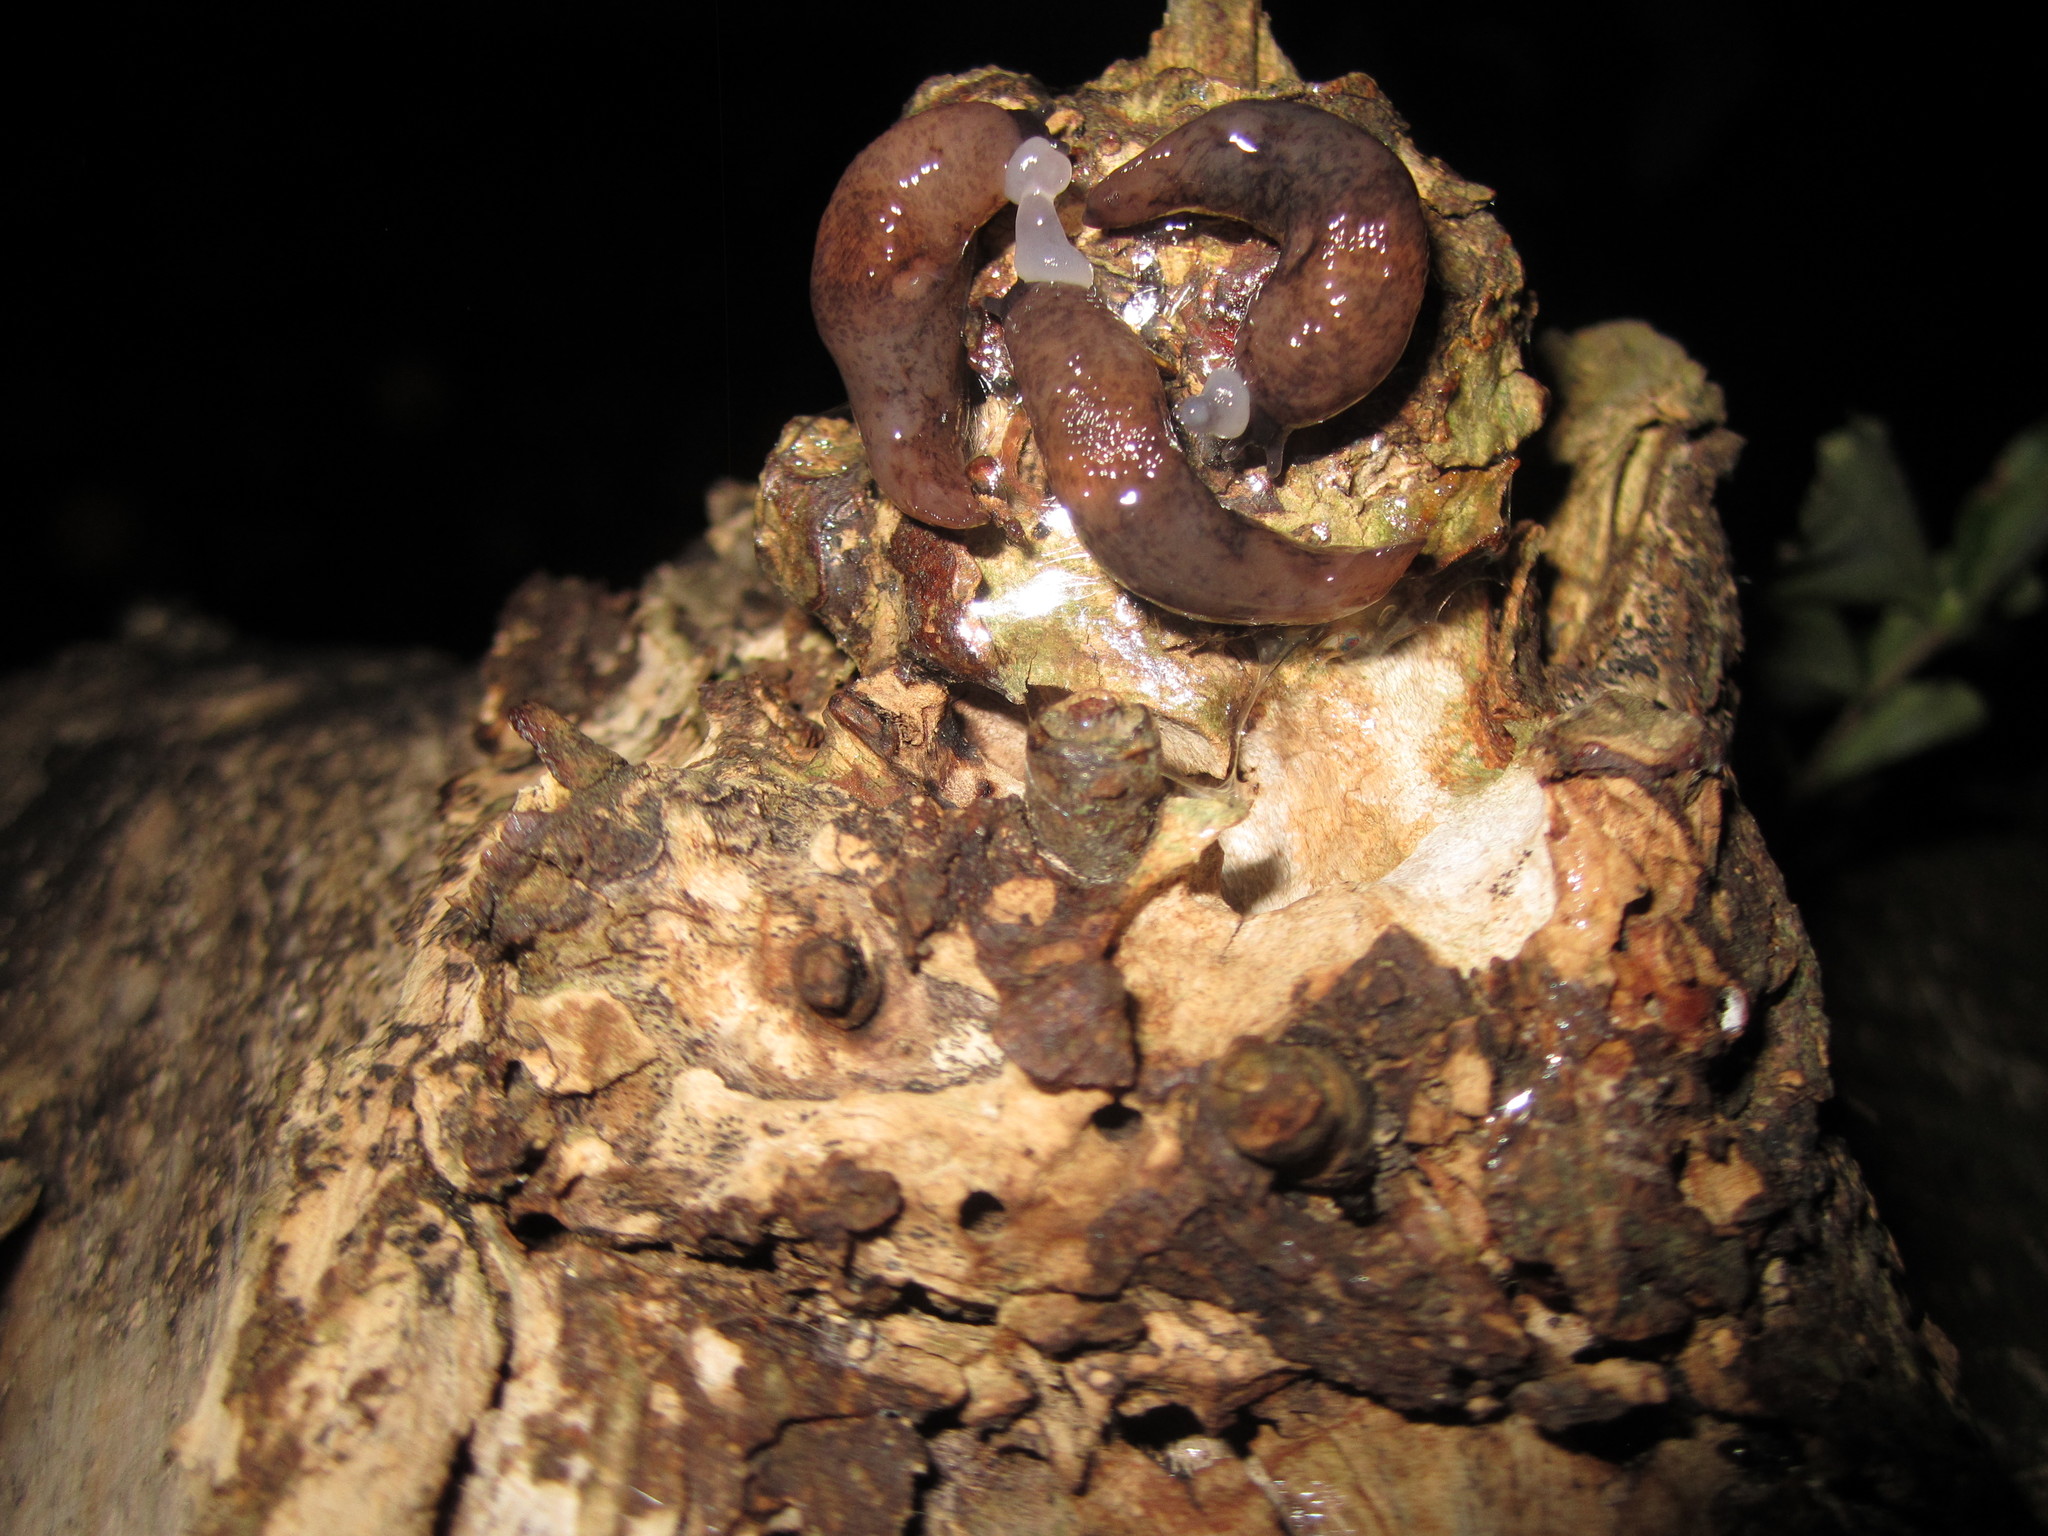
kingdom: Animalia
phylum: Mollusca
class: Gastropoda
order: Stylommatophora
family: Agriolimacidae
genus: Deroceras
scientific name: Deroceras reticulatum
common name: Gray field slug
